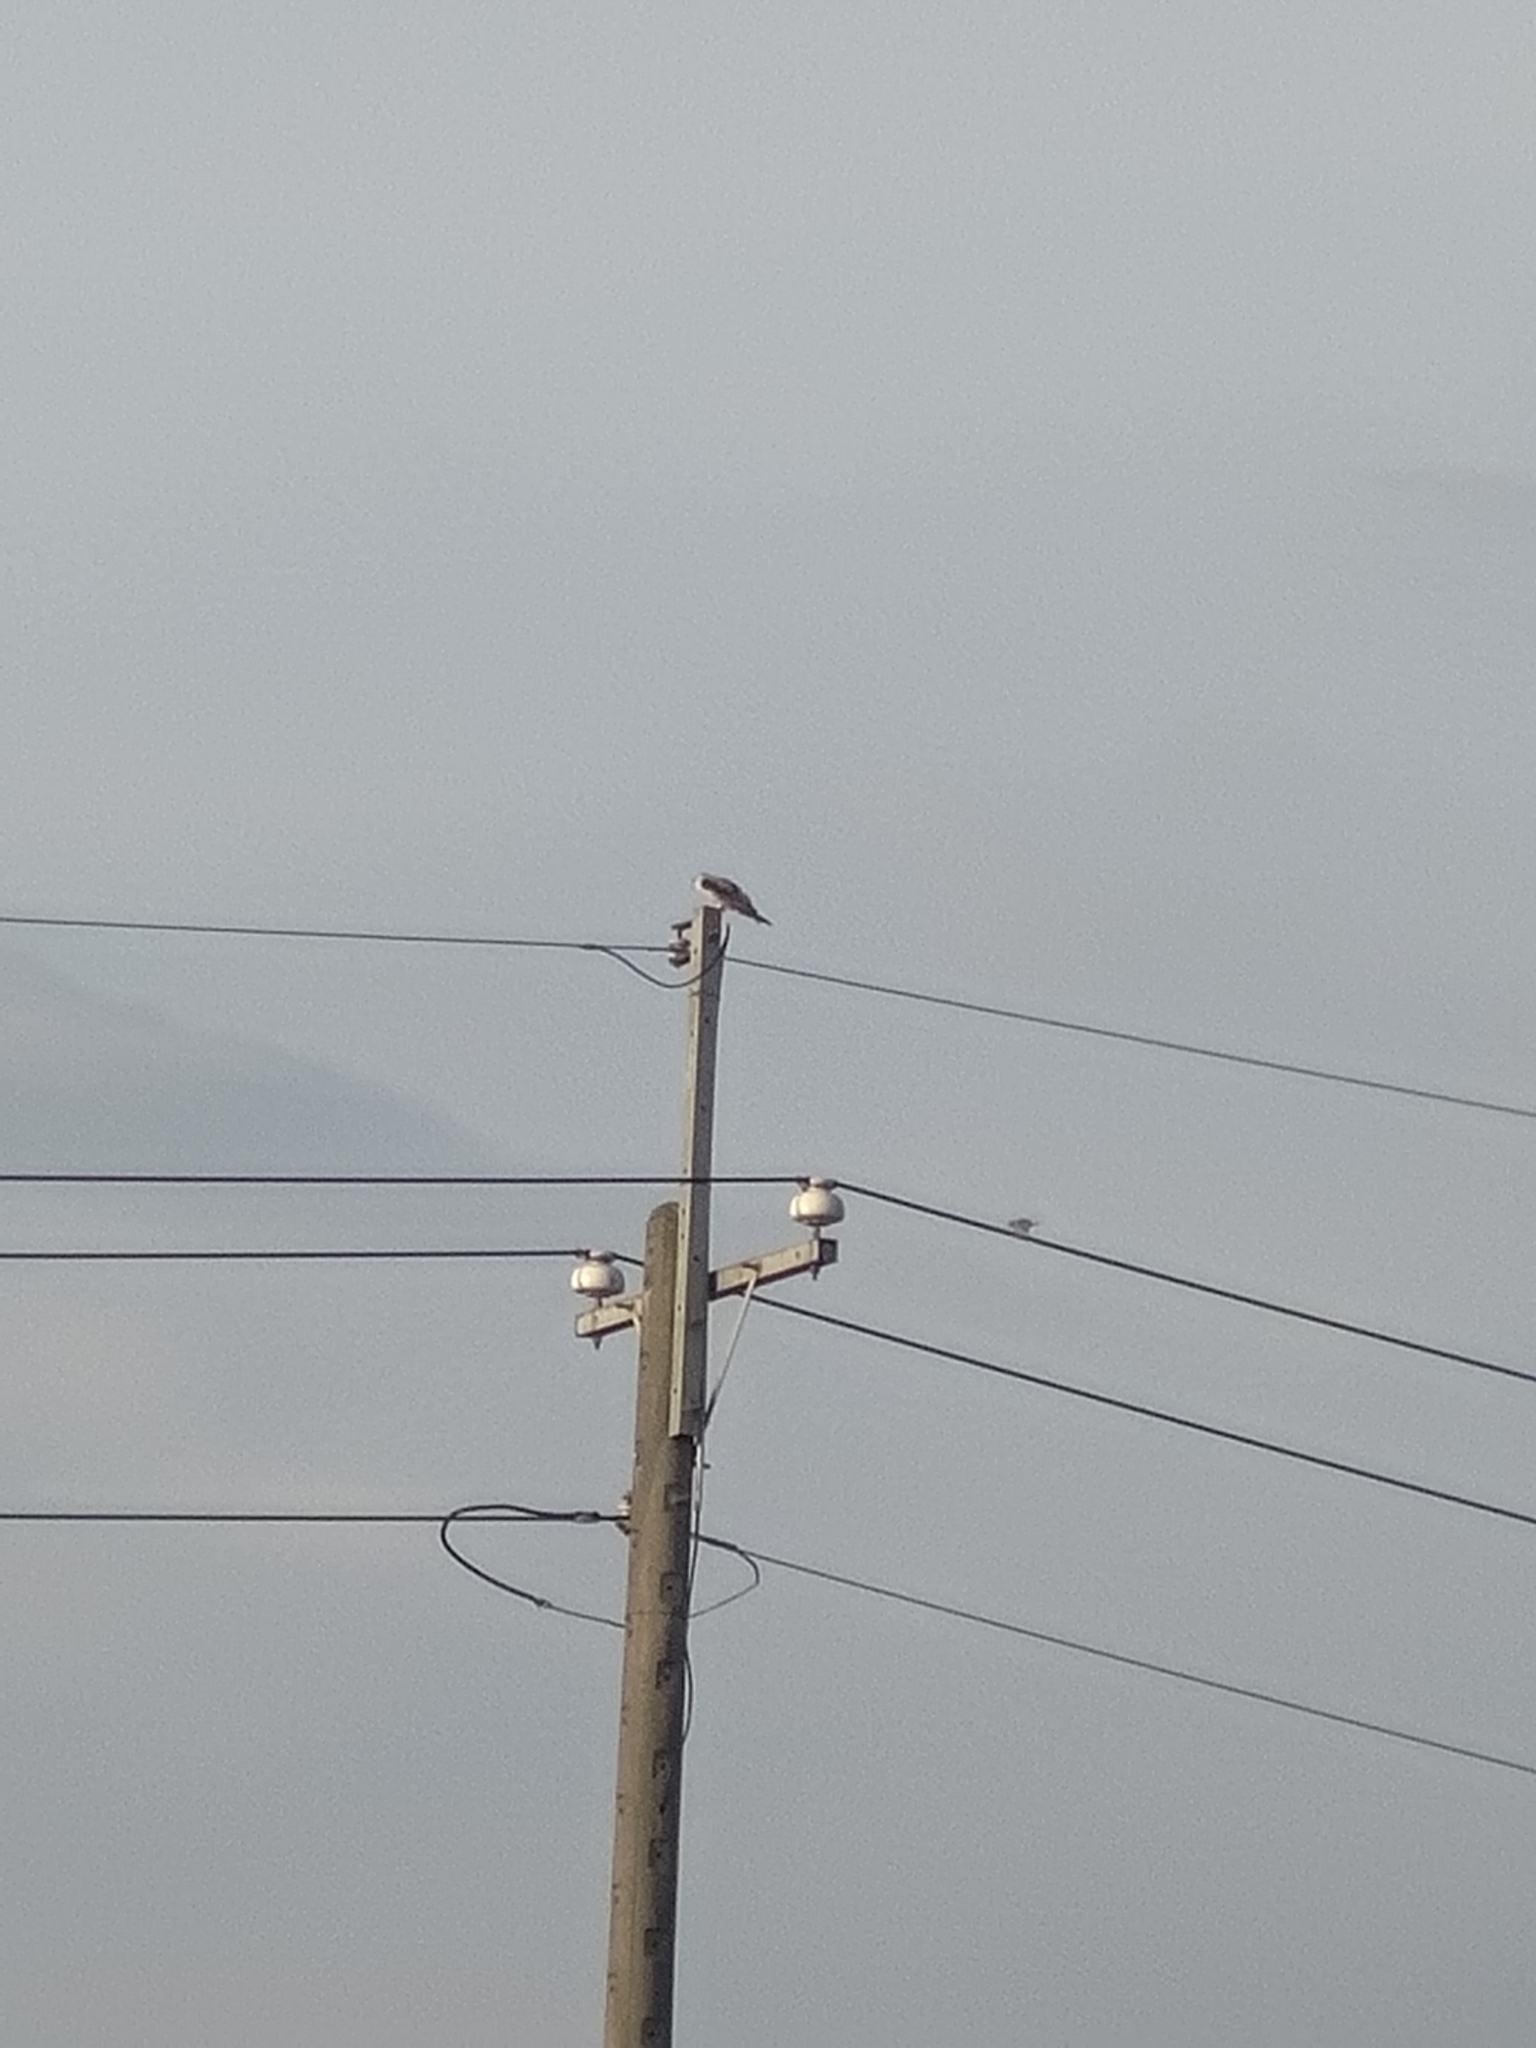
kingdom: Animalia
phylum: Chordata
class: Aves
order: Accipitriformes
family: Accipitridae
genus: Elanus
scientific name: Elanus caeruleus
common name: Black-winged kite
